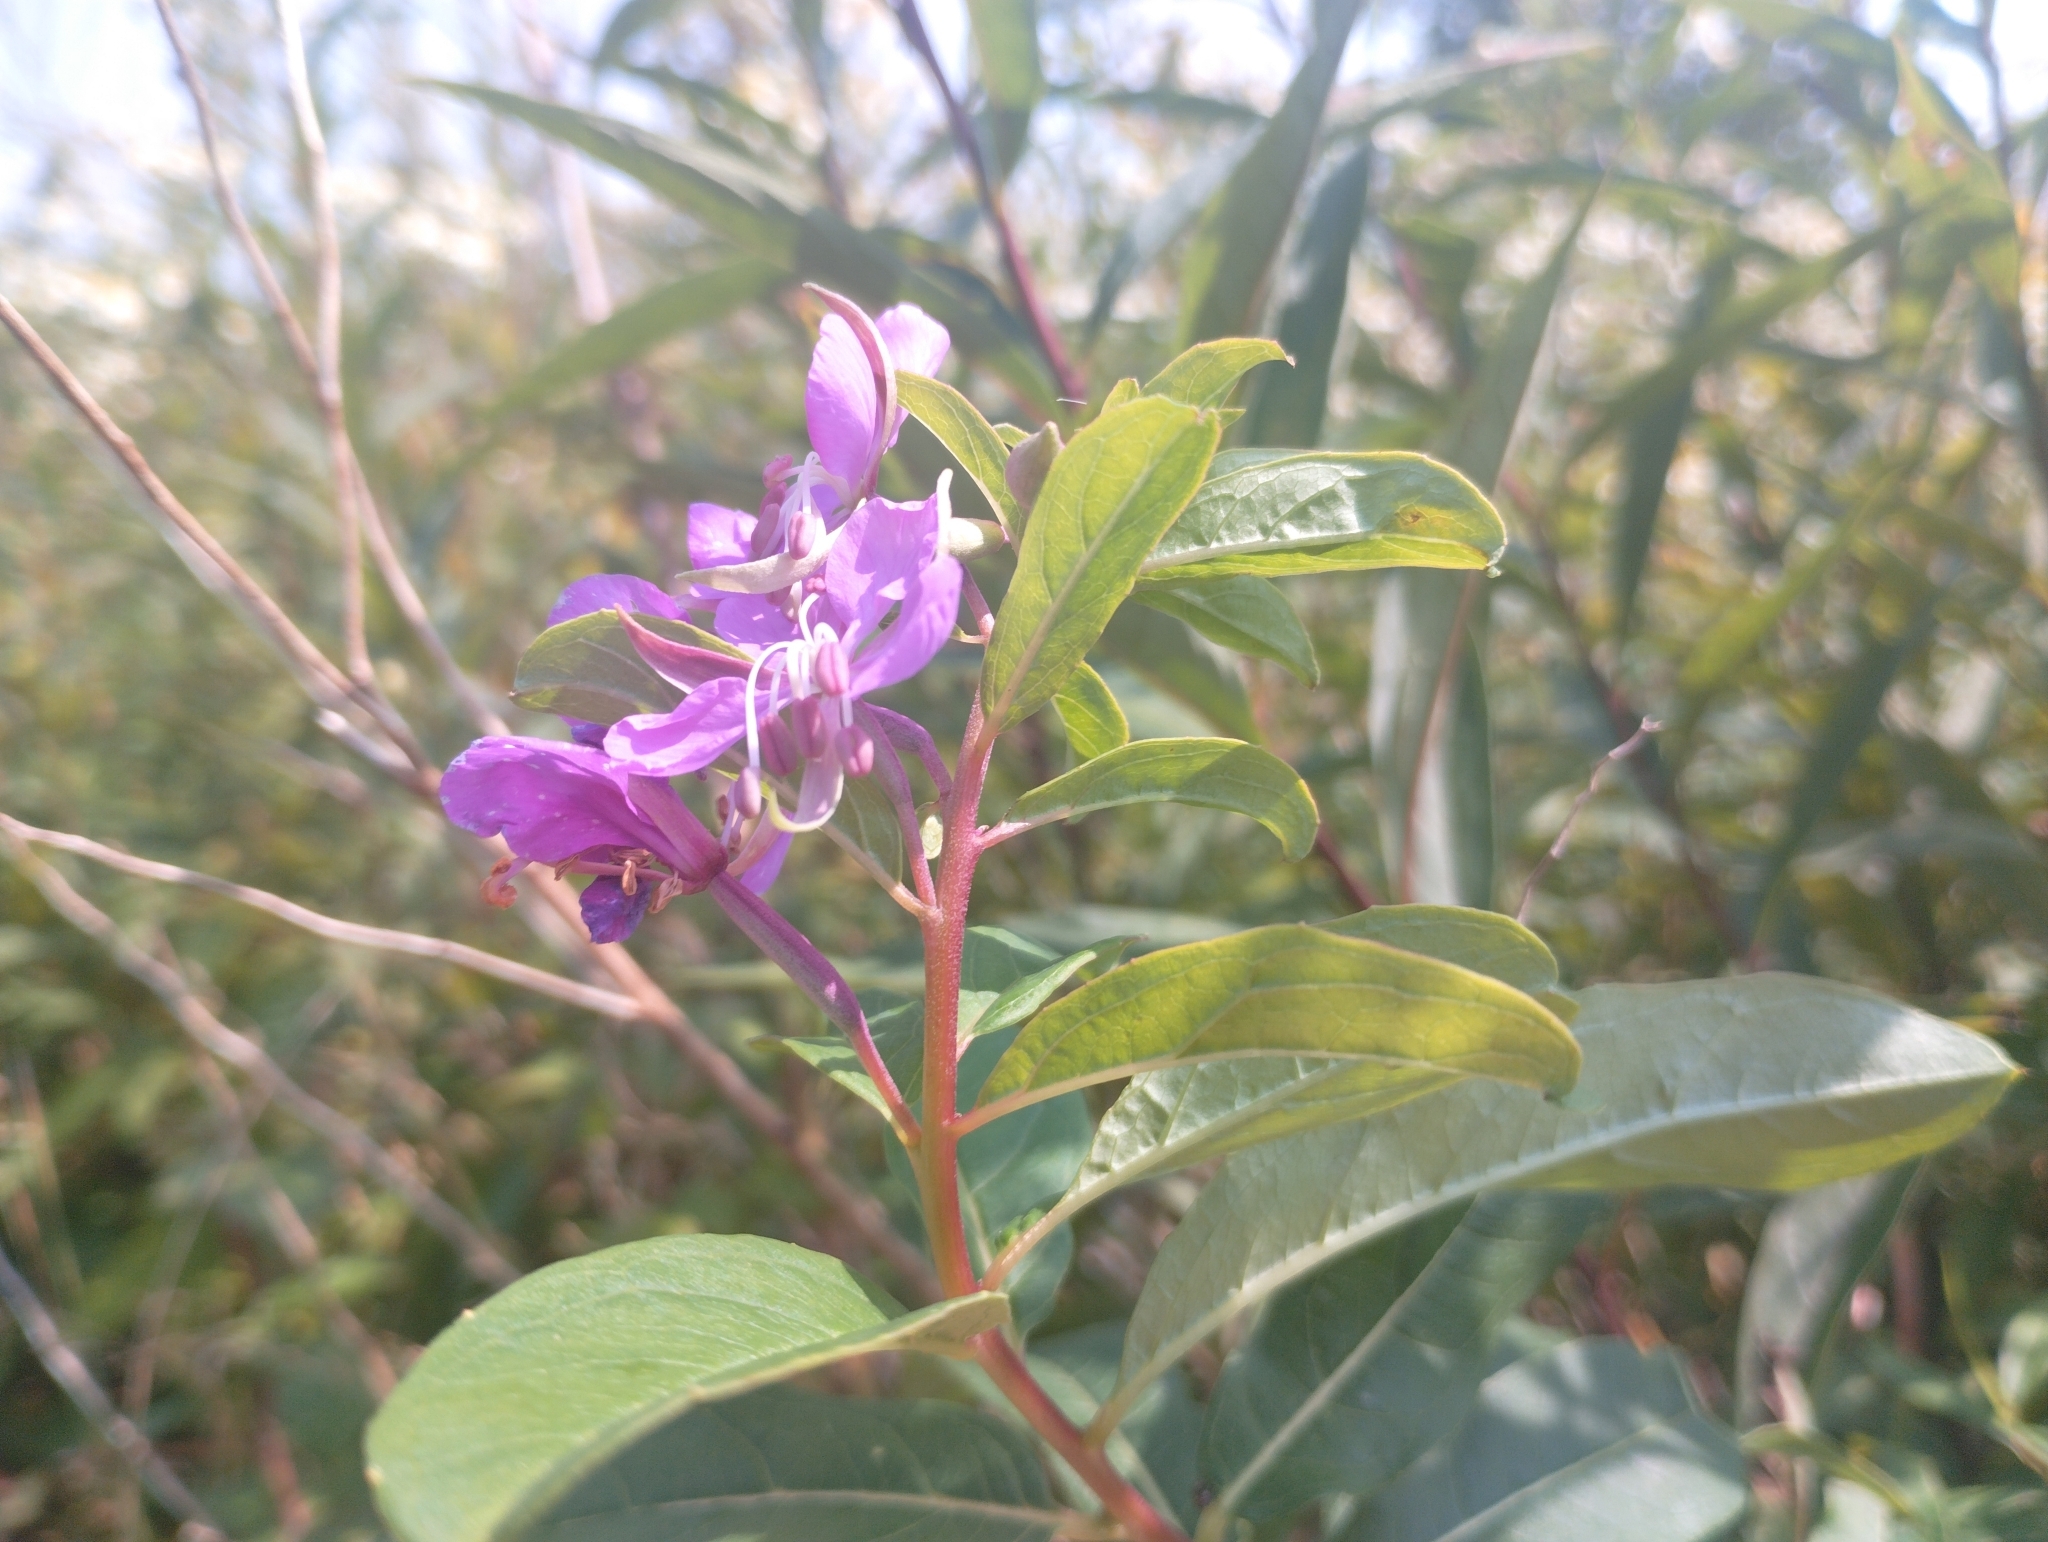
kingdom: Plantae
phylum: Tracheophyta
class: Magnoliopsida
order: Myrtales
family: Onagraceae
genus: Chamaenerion
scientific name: Chamaenerion angustifolium
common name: Fireweed
